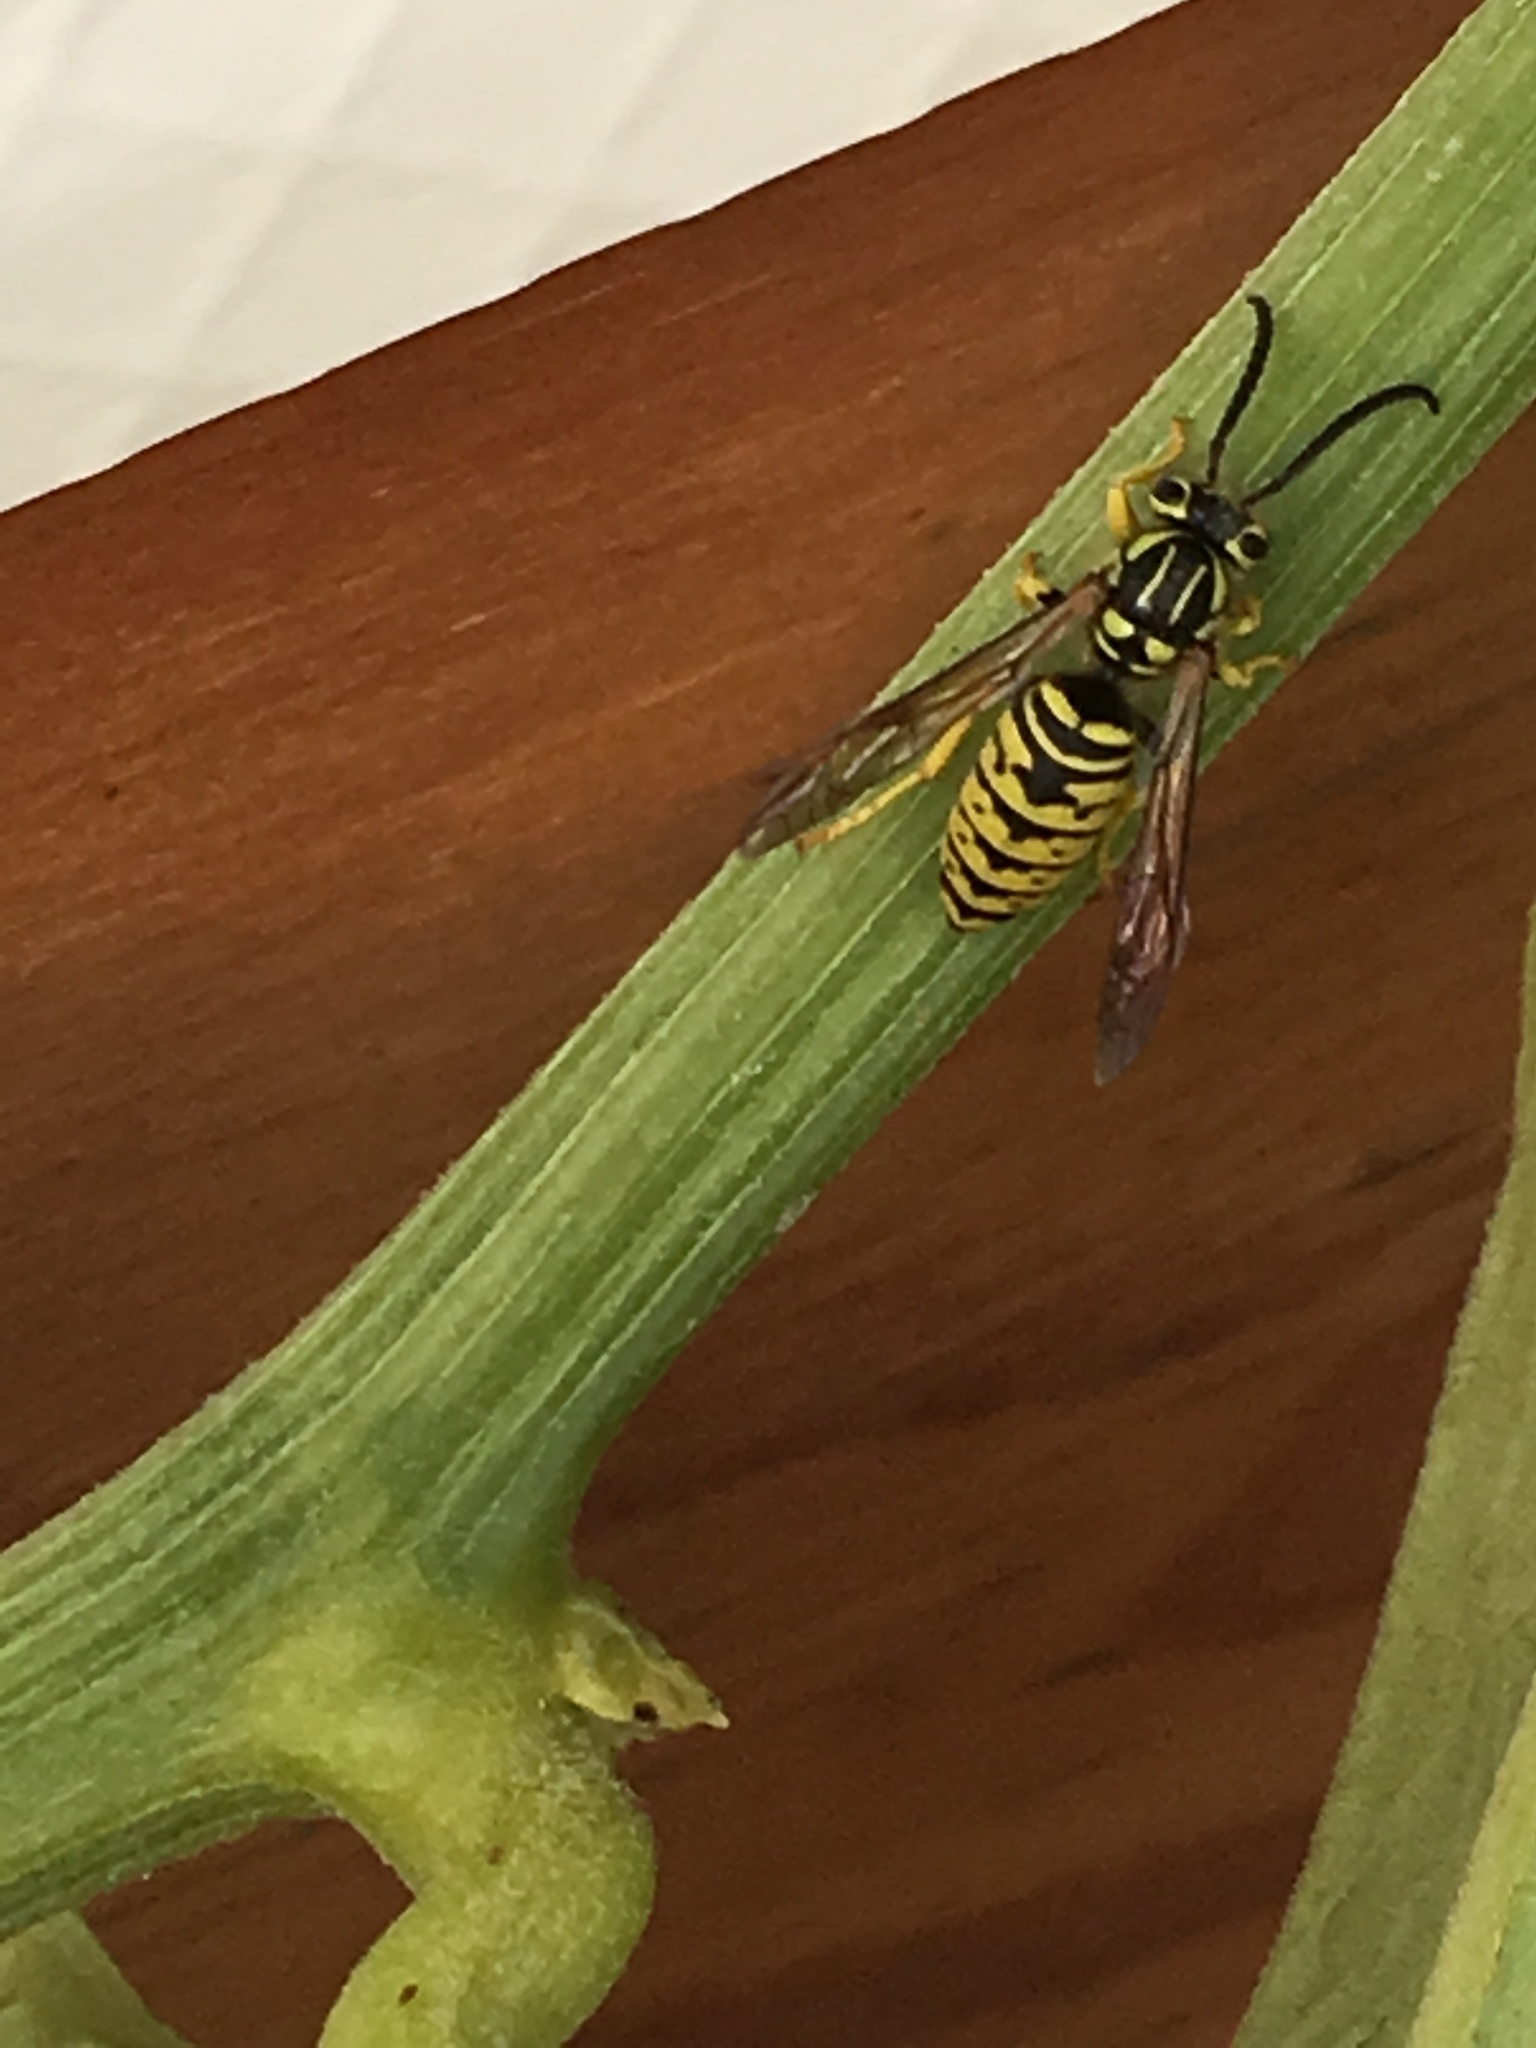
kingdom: Animalia
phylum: Arthropoda
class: Insecta
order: Hymenoptera
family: Vespidae
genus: Vespula
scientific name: Vespula sulphurea
